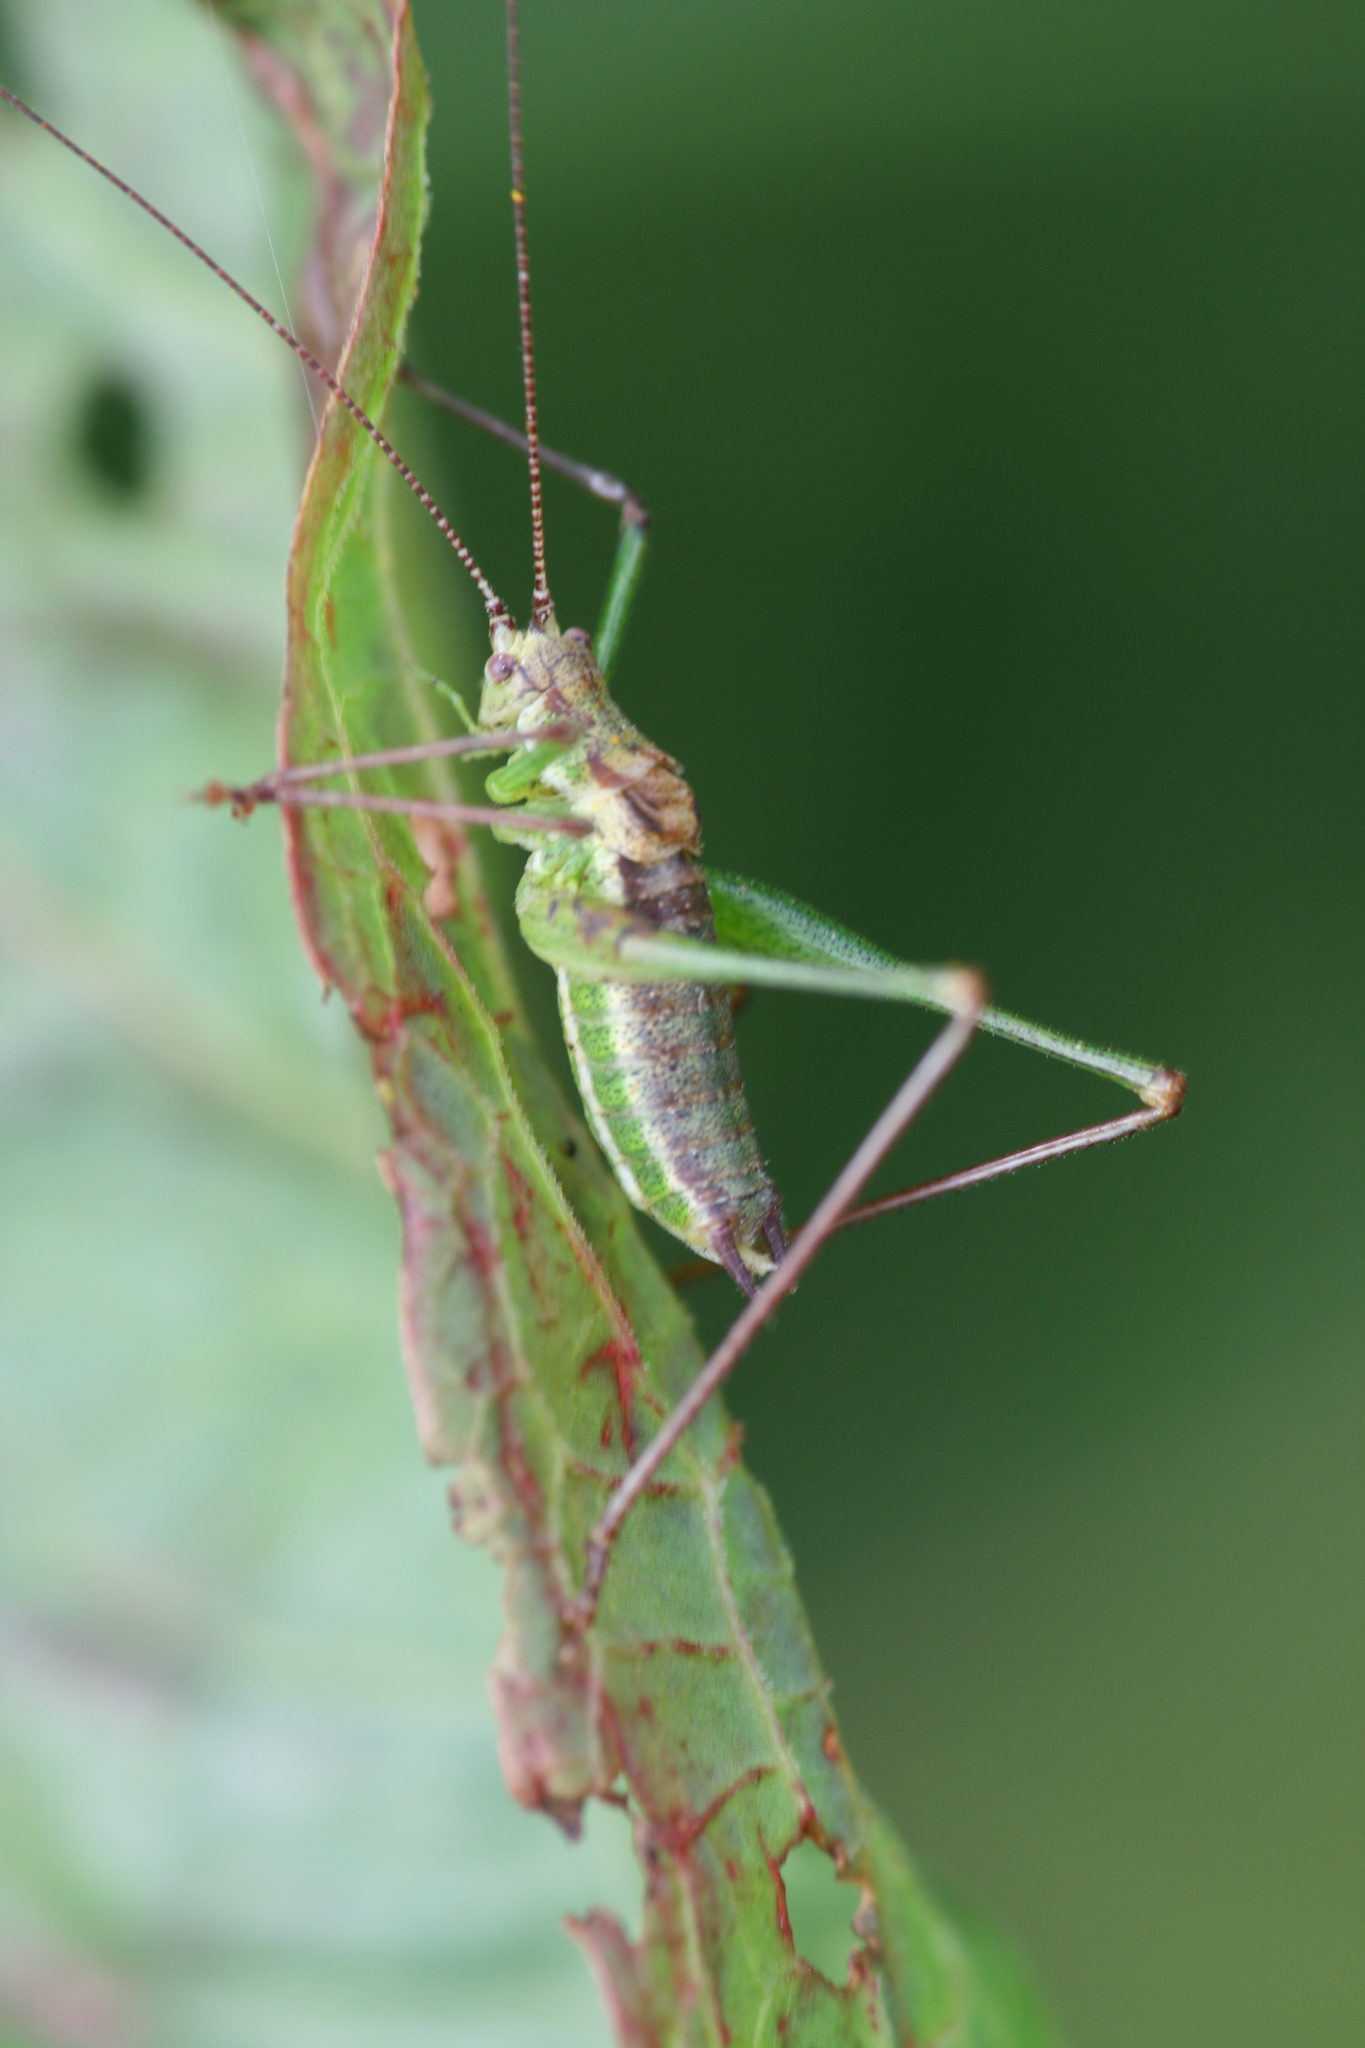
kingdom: Animalia
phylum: Arthropoda
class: Insecta
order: Orthoptera
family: Tettigoniidae
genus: Leptophyes
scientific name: Leptophyes albovittata
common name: Striped bush-cricket
